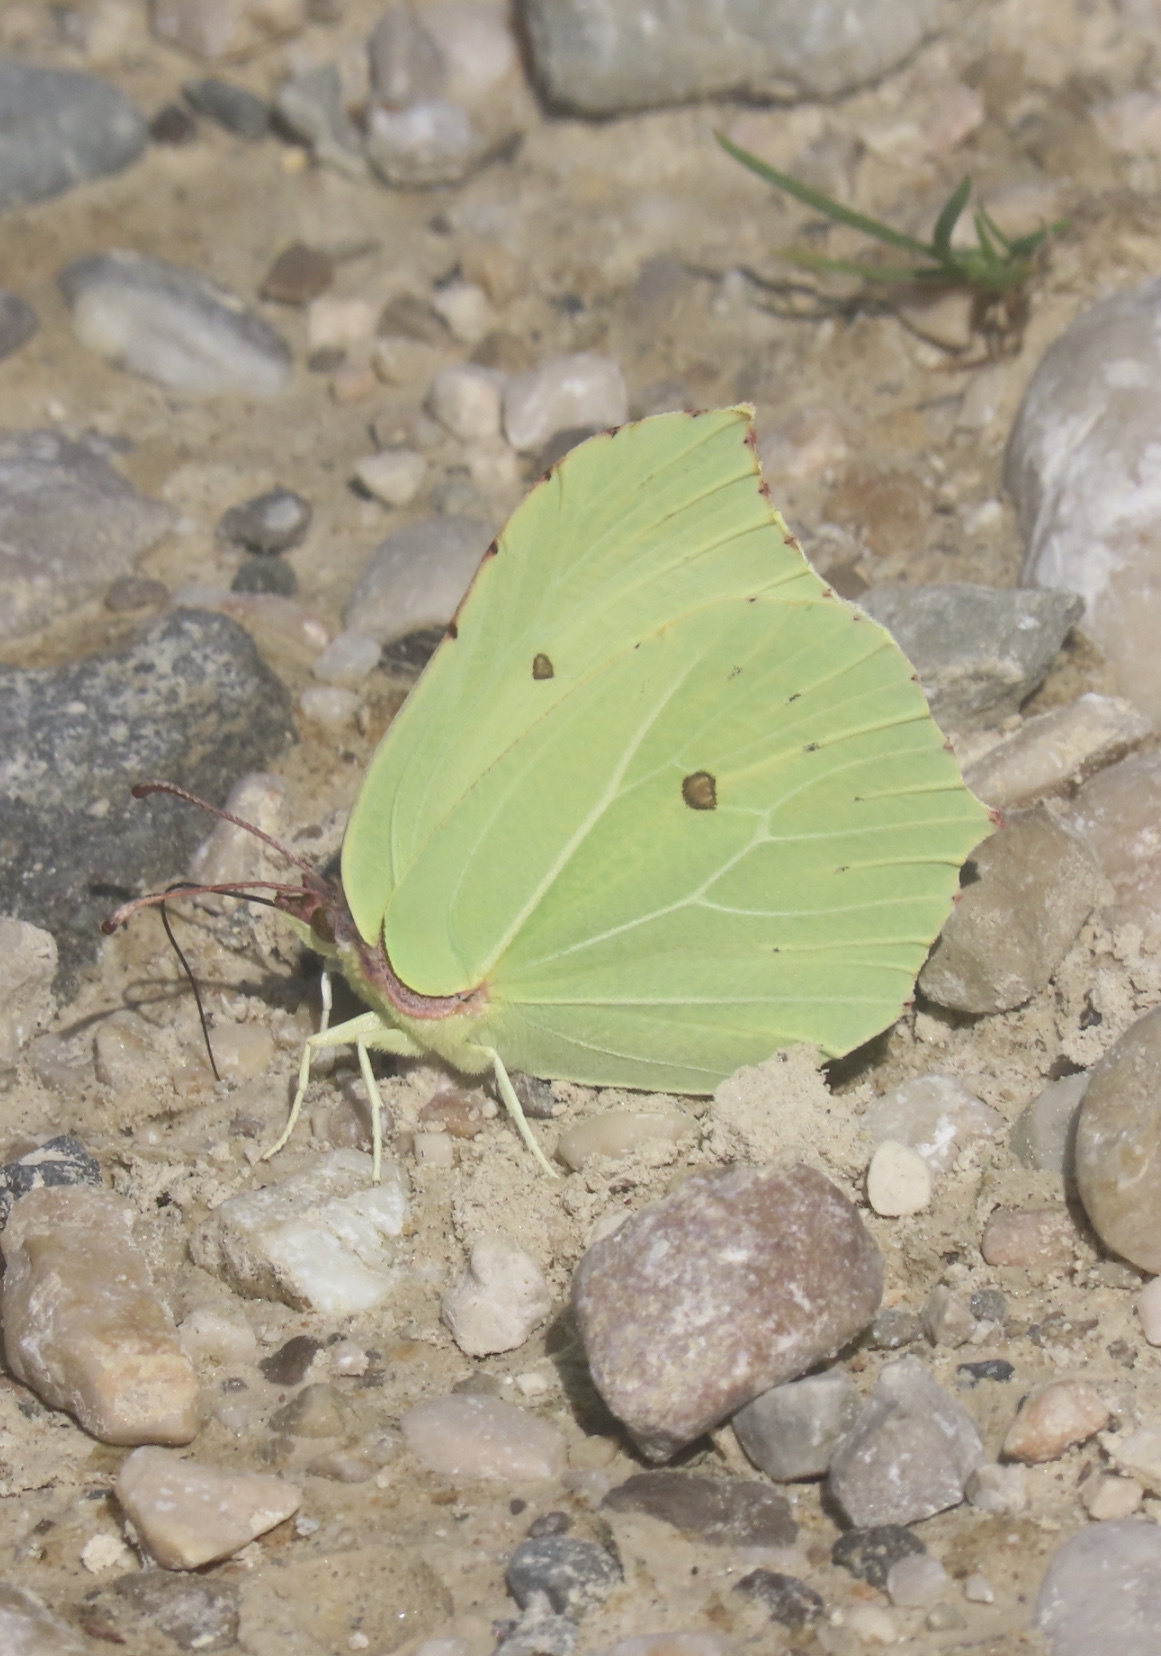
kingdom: Animalia
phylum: Arthropoda
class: Insecta
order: Lepidoptera
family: Pieridae
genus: Gonepteryx
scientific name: Gonepteryx rhamni
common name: Brimstone
